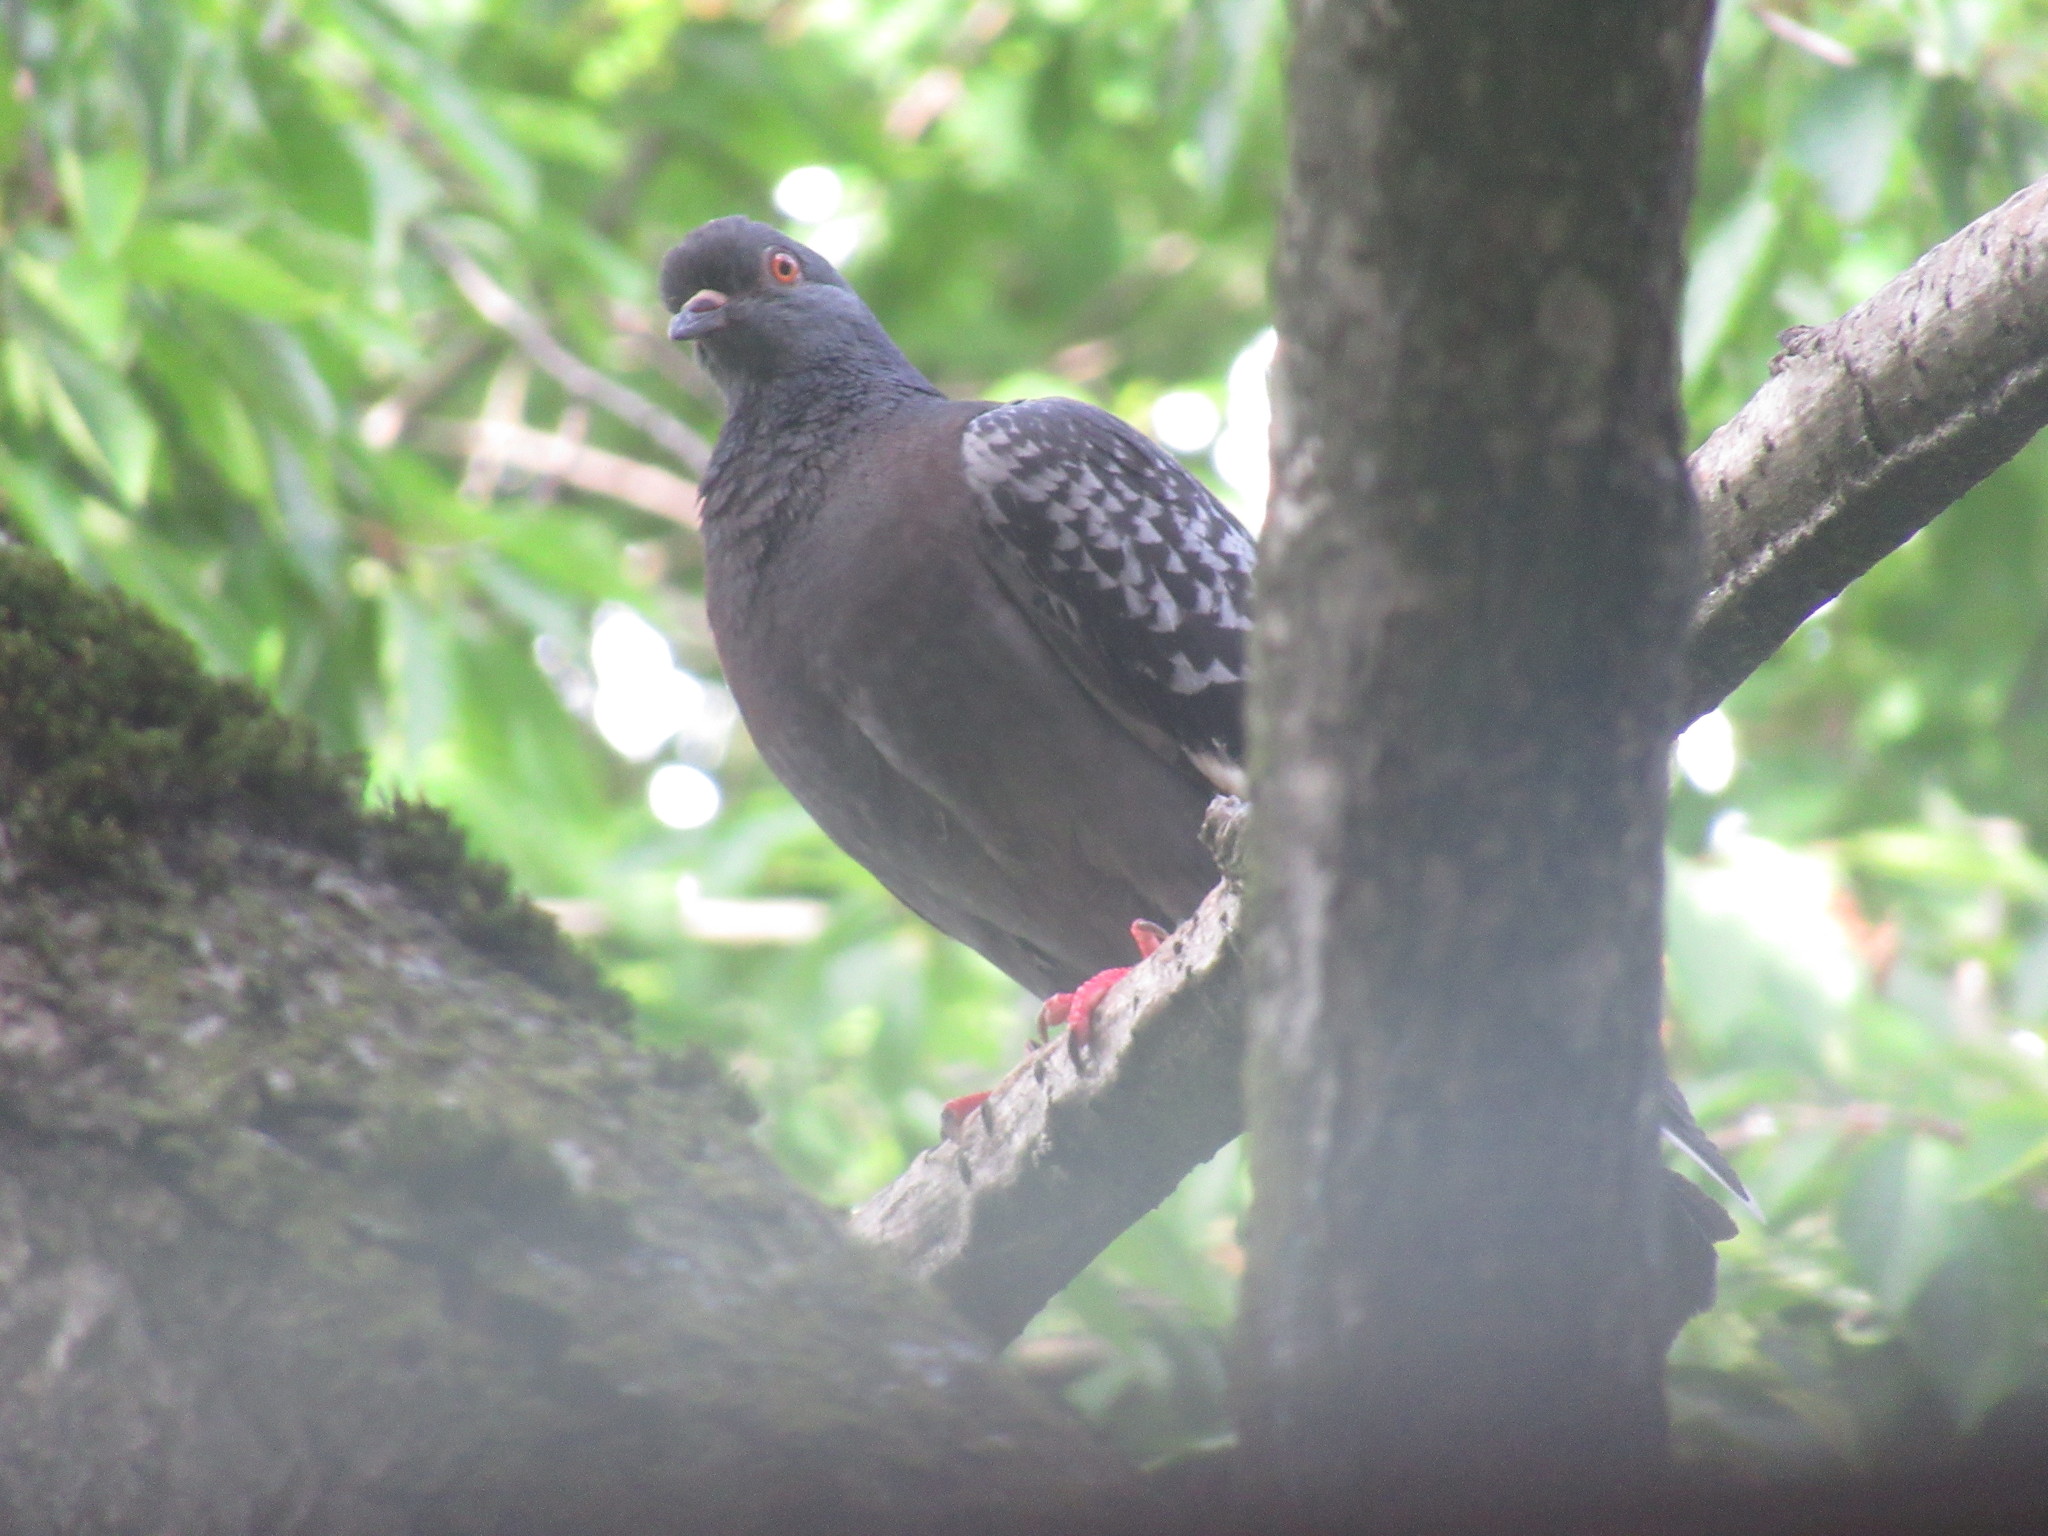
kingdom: Animalia
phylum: Chordata
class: Aves
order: Columbiformes
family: Columbidae
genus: Columba
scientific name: Columba livia
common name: Rock pigeon
